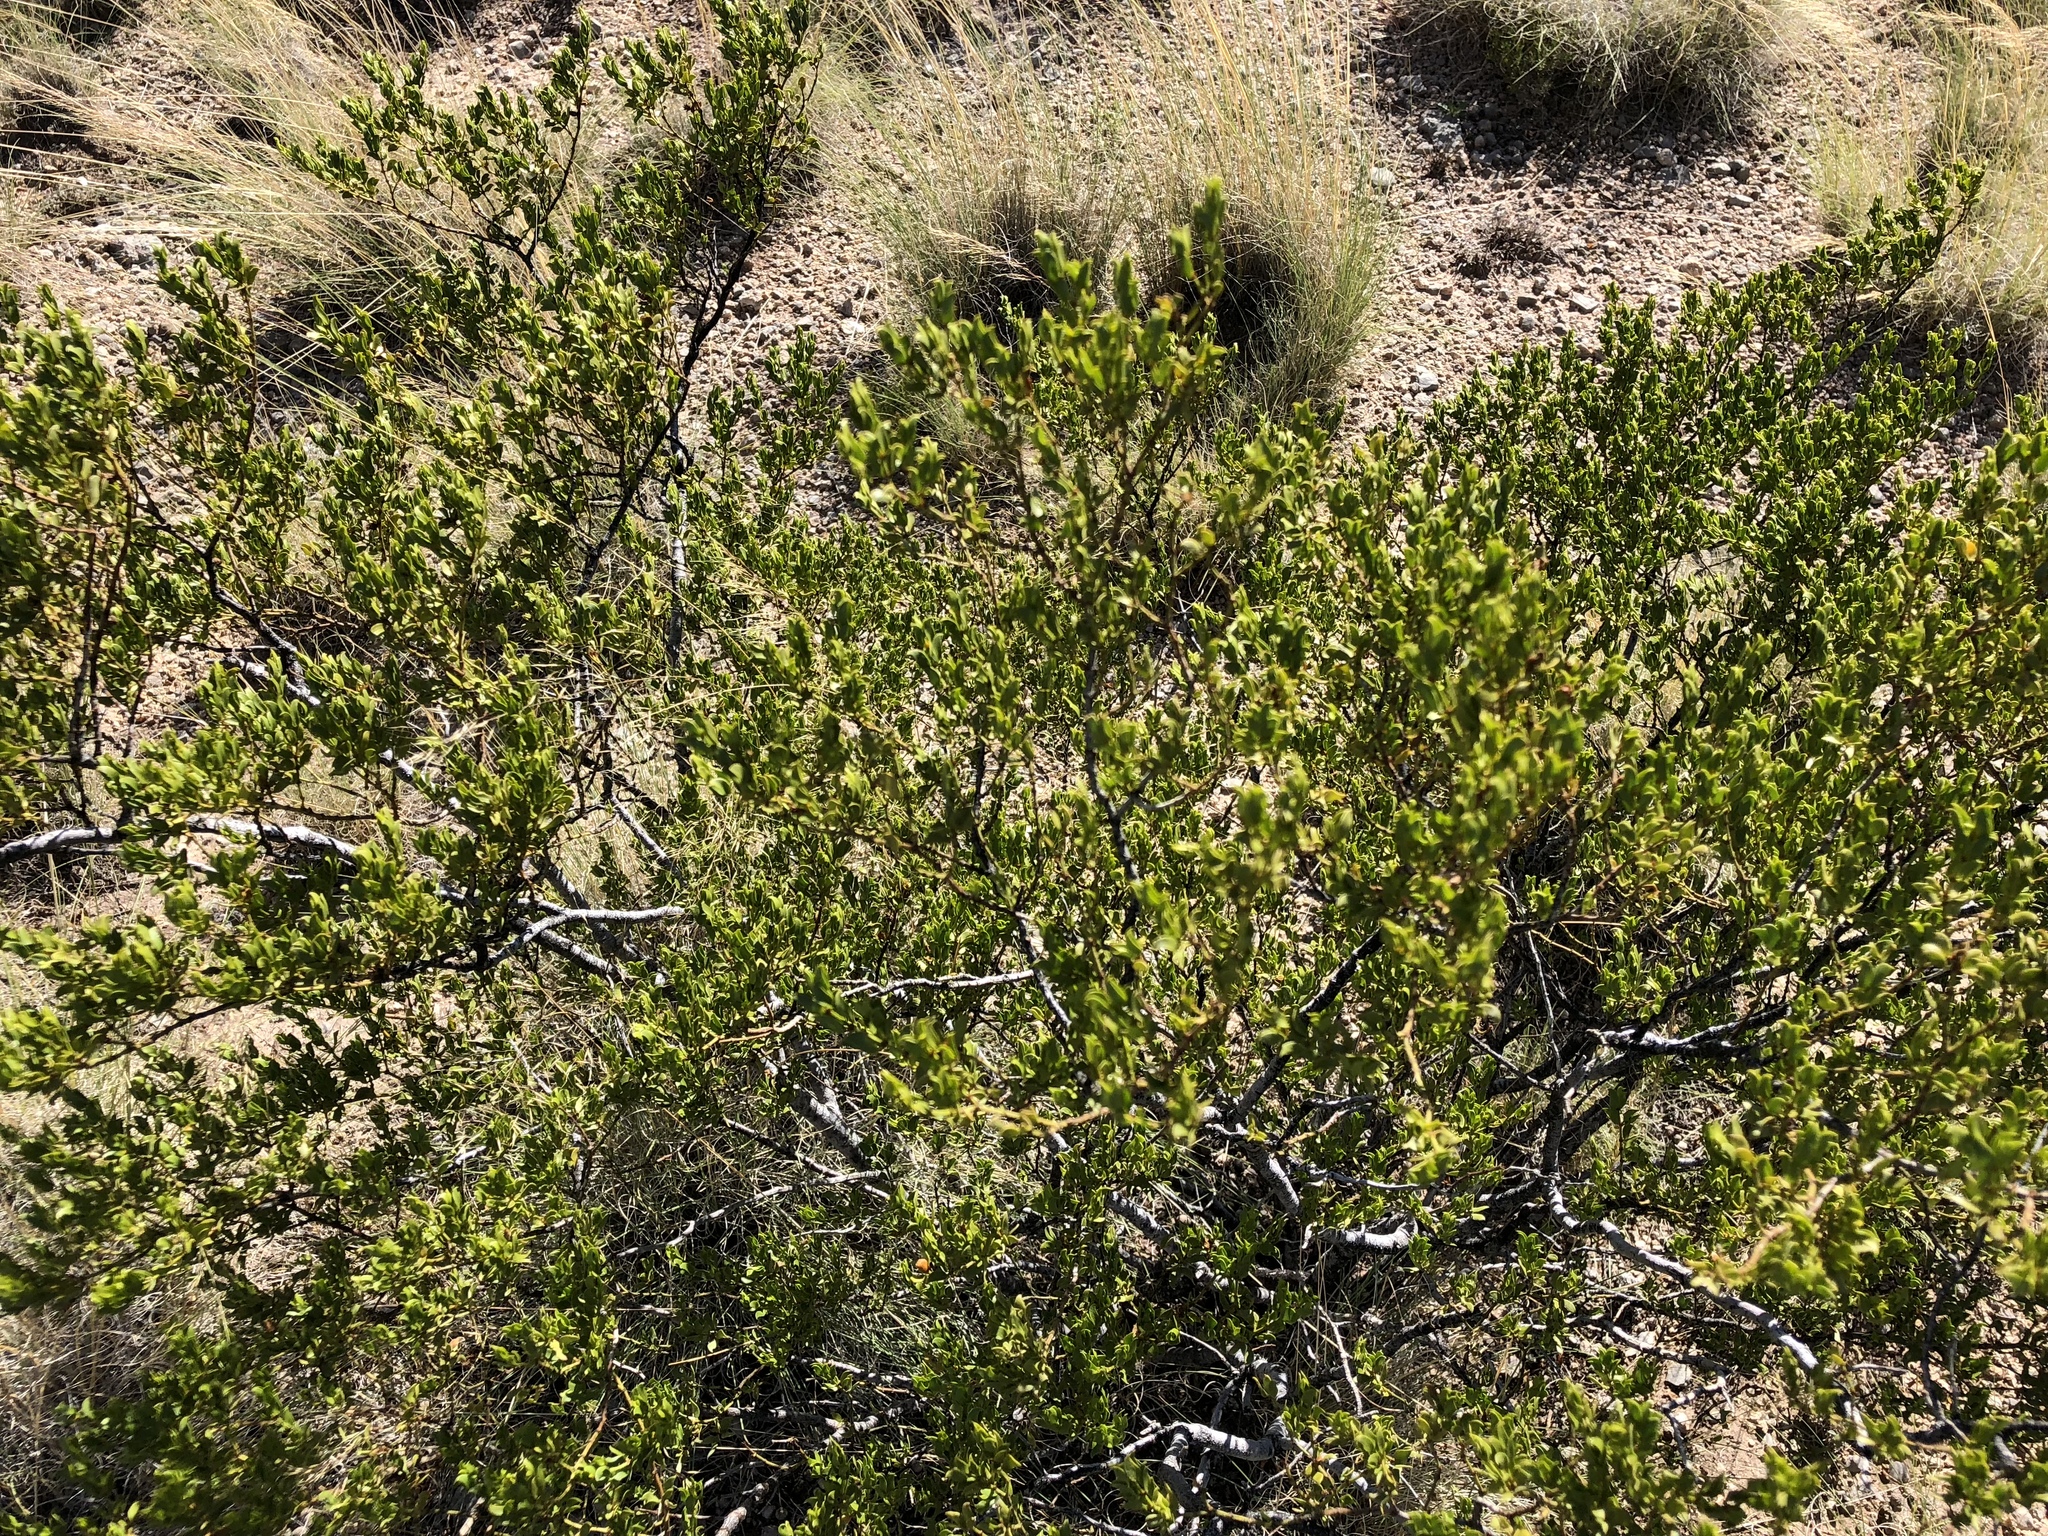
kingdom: Plantae
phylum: Tracheophyta
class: Magnoliopsida
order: Zygophyllales
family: Zygophyllaceae
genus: Larrea
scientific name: Larrea tridentata
